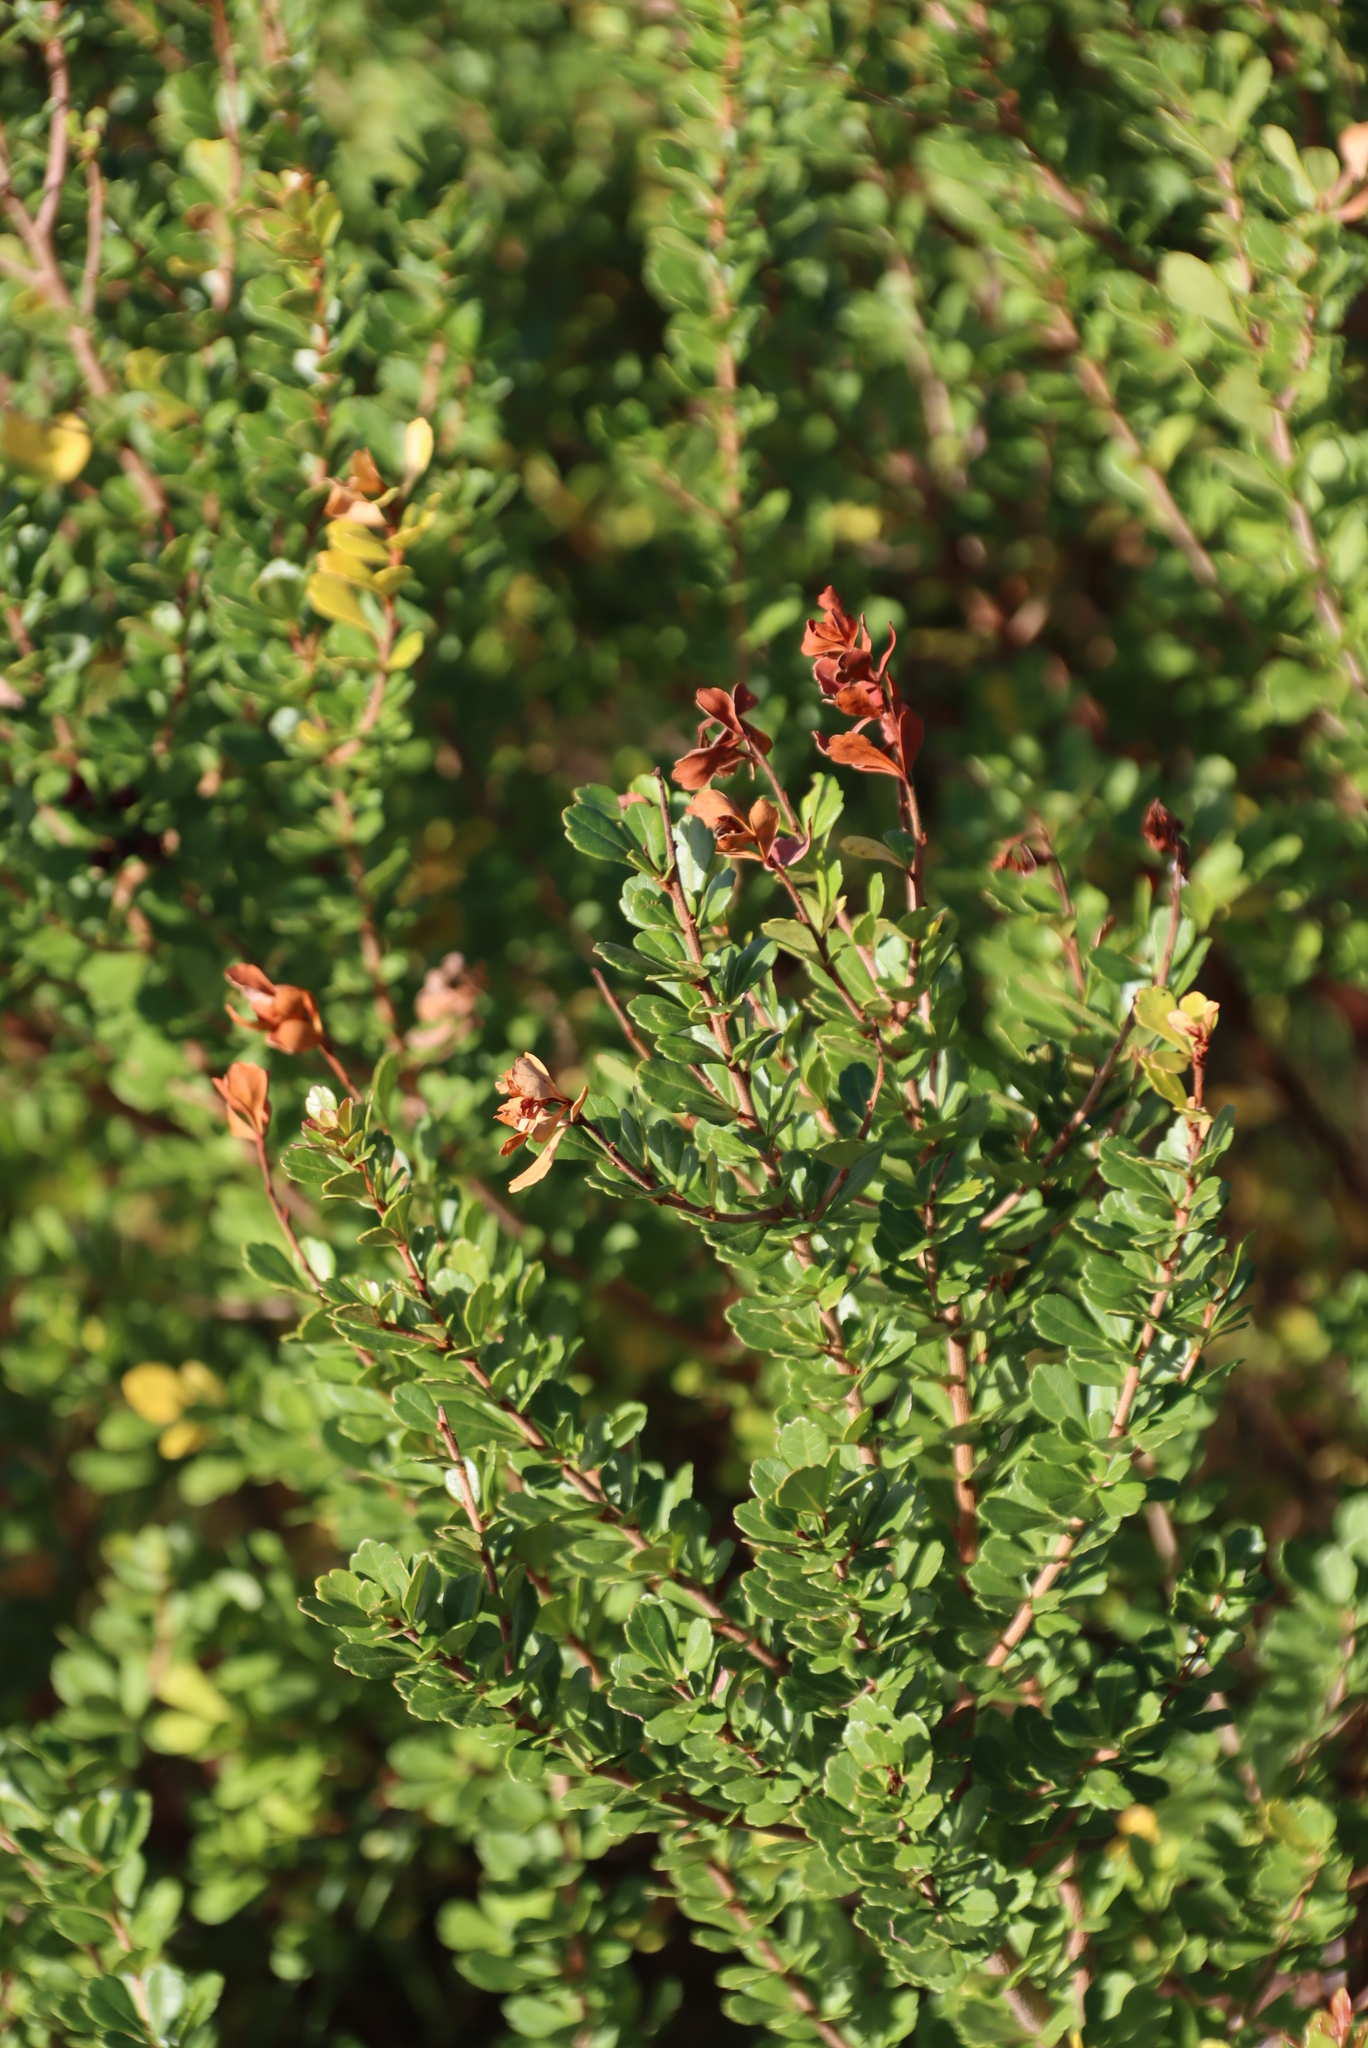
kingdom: Plantae
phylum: Tracheophyta
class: Magnoliopsida
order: Sapindales
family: Anacardiaceae
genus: Searsia
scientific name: Searsia crenata
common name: Crowberry
